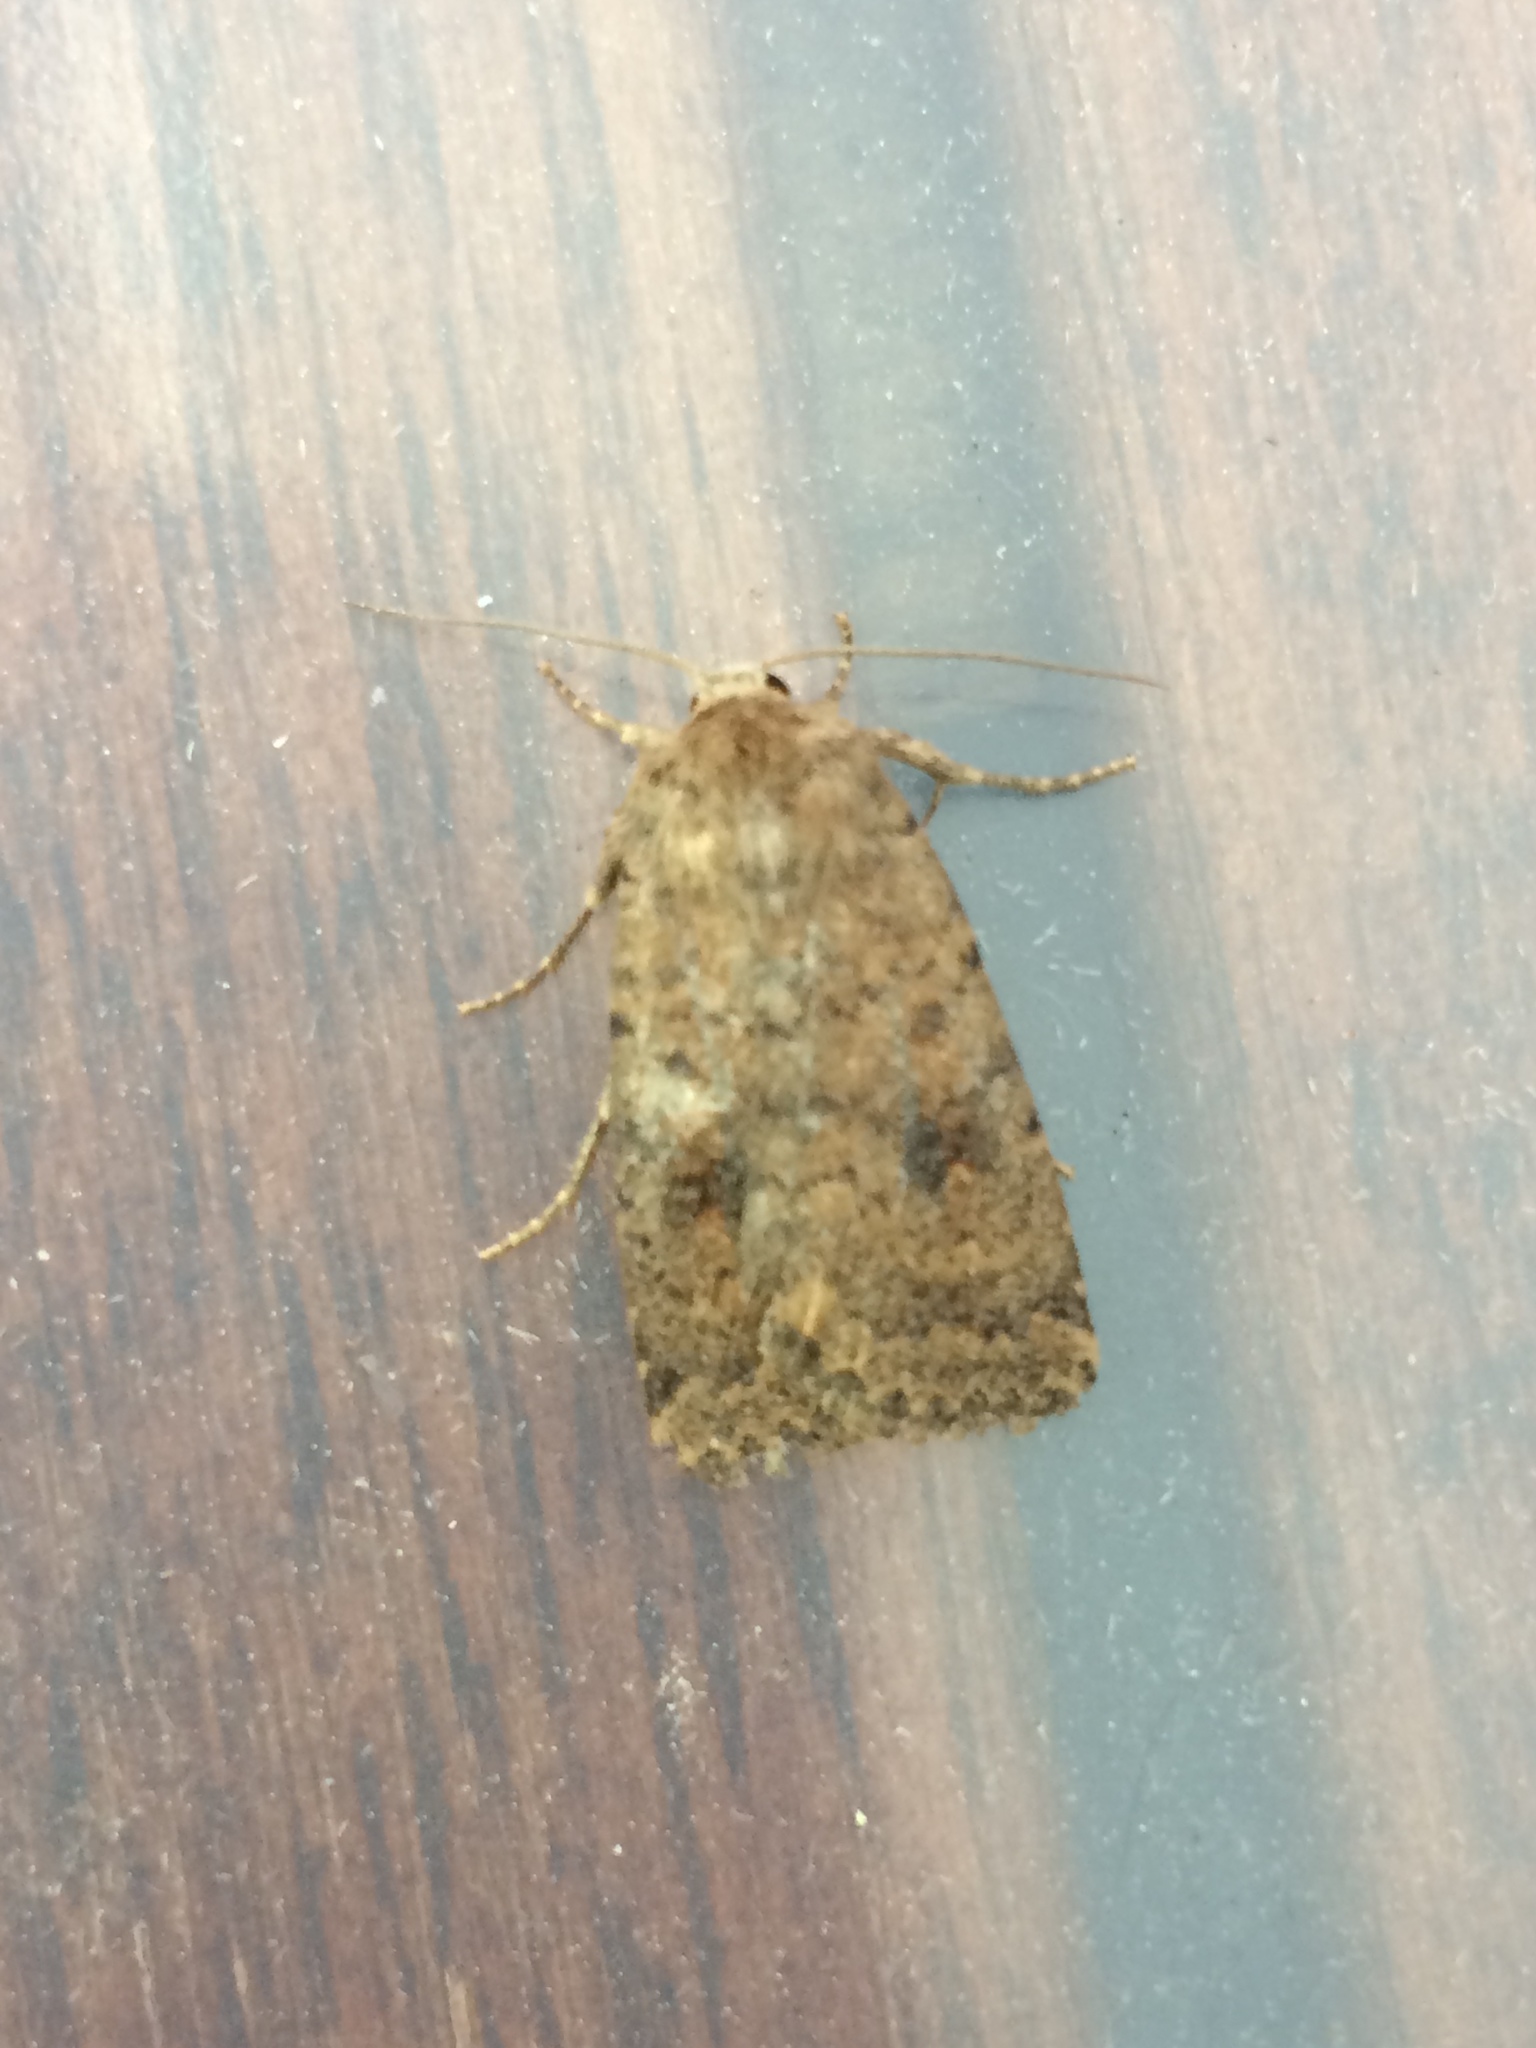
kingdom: Animalia
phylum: Arthropoda
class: Insecta
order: Lepidoptera
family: Noctuidae
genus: Caradrina
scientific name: Caradrina morpheus
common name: Mottled rustic
